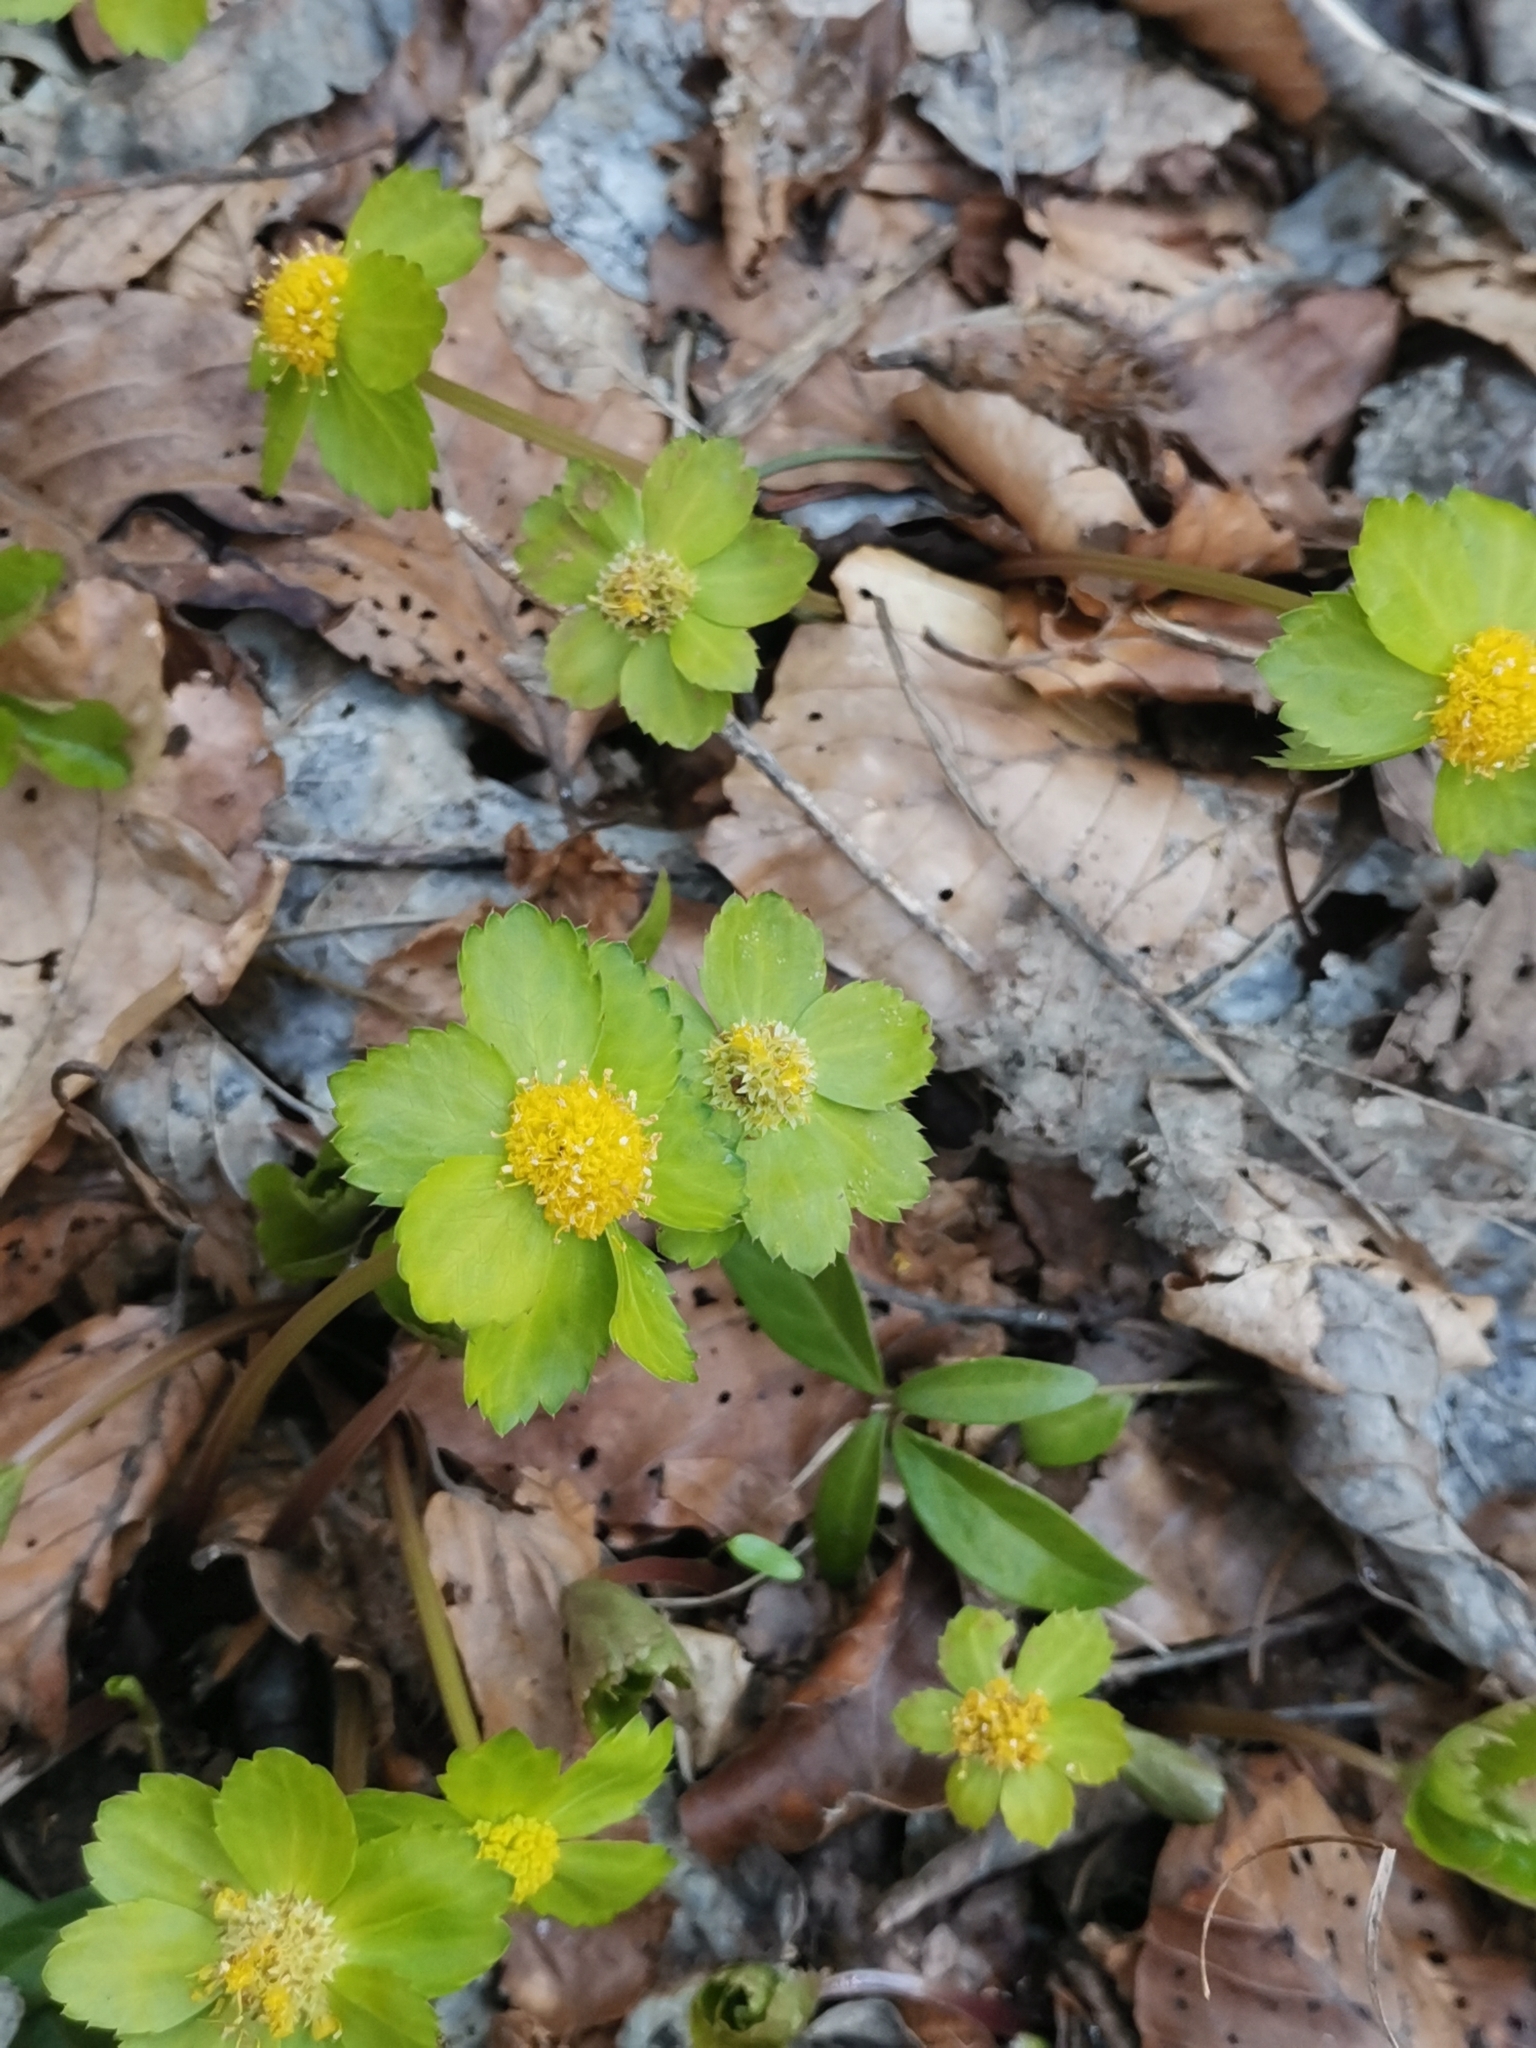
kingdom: Plantae
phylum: Tracheophyta
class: Magnoliopsida
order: Apiales
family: Apiaceae
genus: Sanicula
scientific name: Sanicula epipactis
